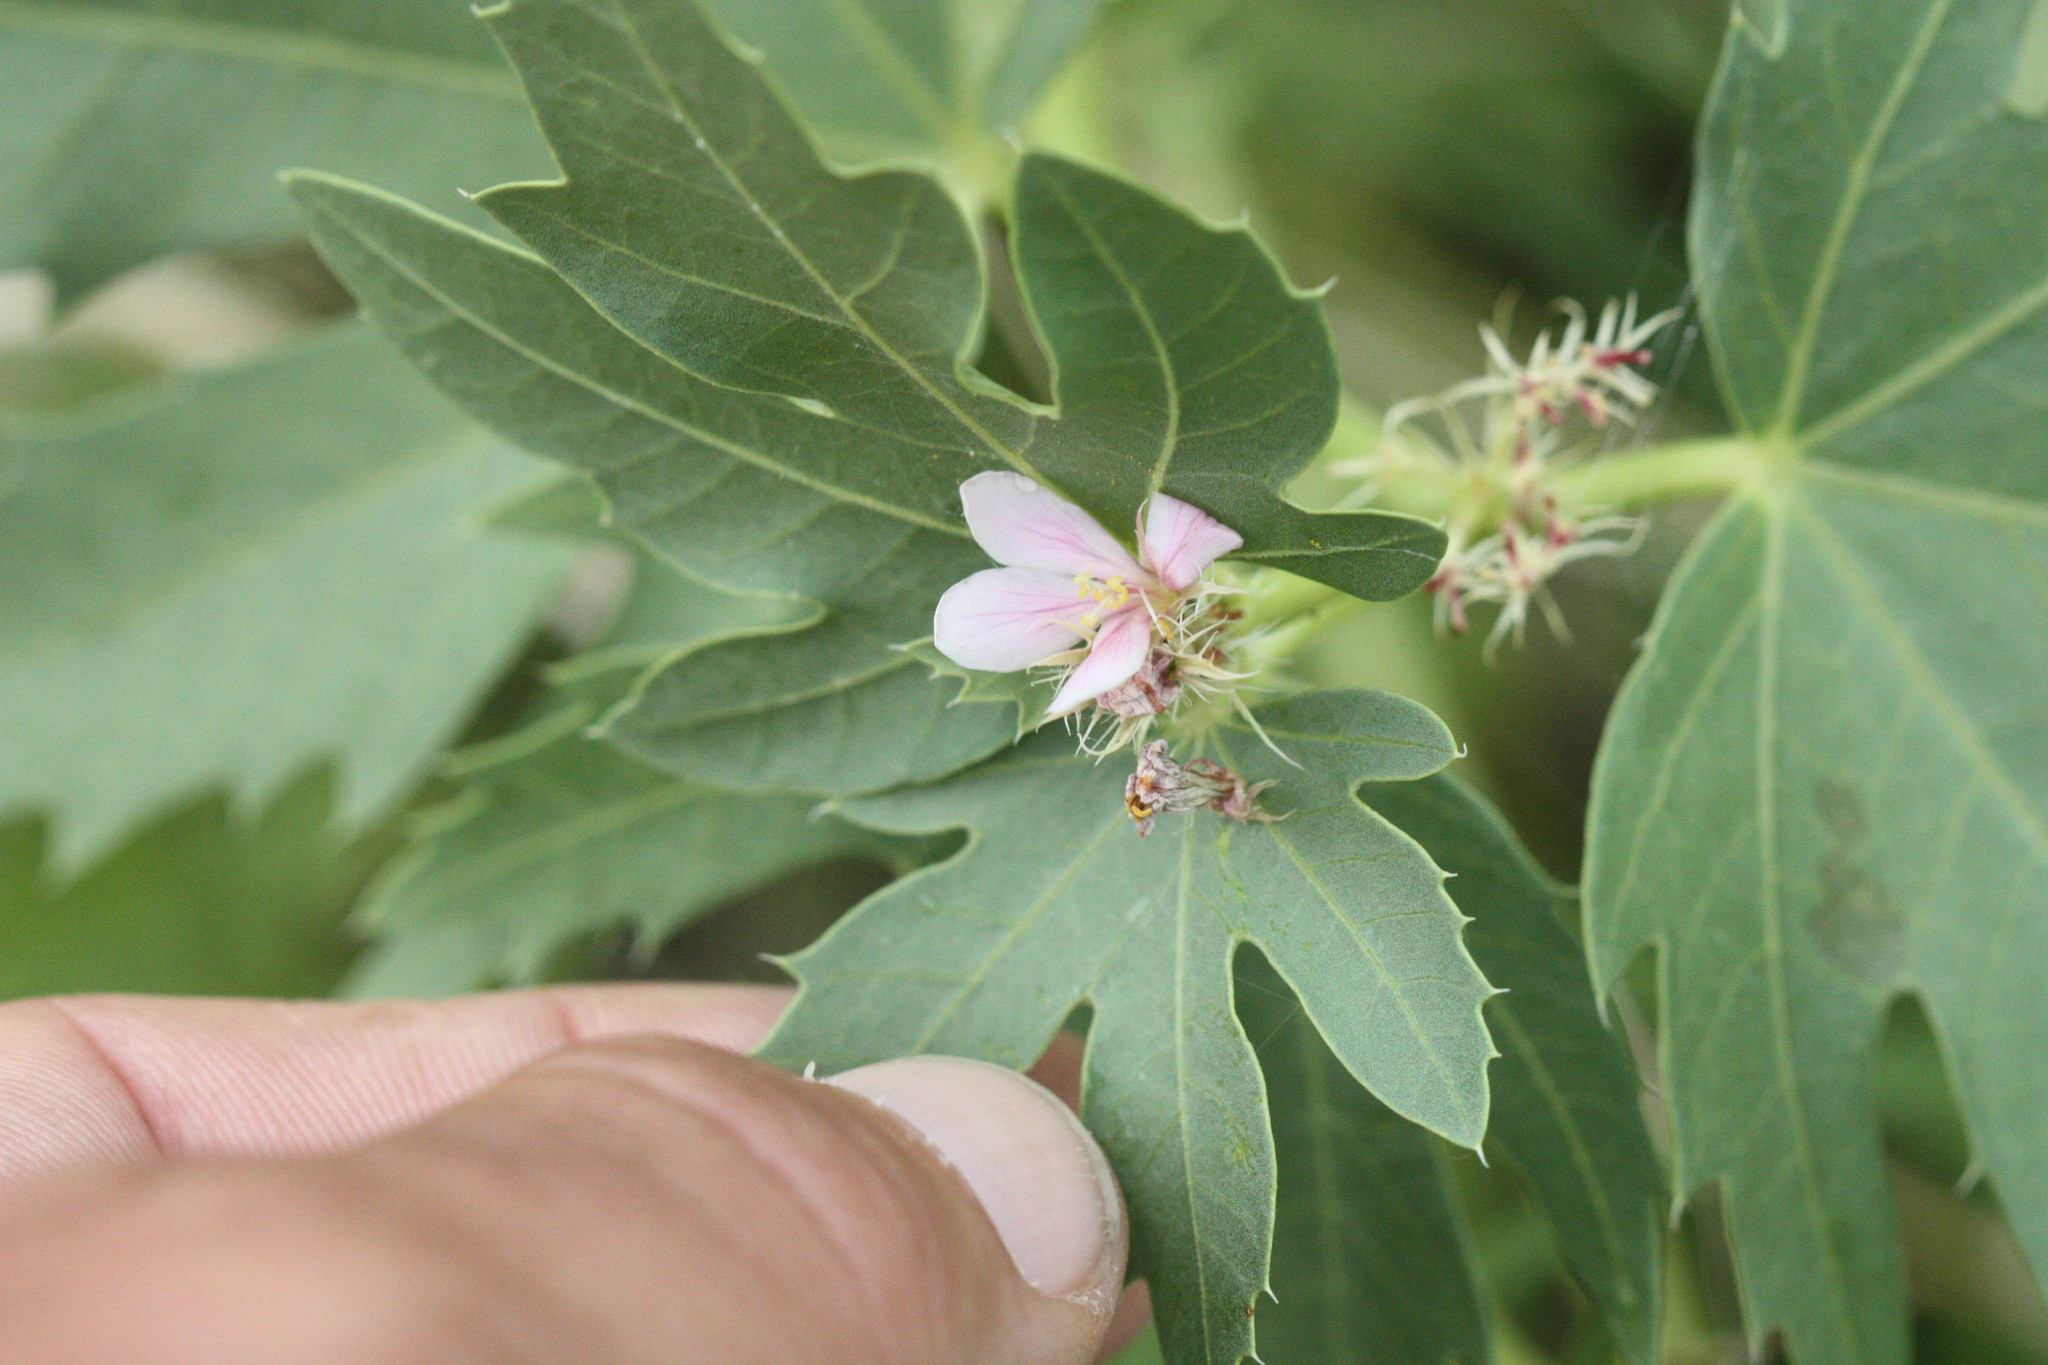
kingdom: Plantae
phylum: Tracheophyta
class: Magnoliopsida
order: Malpighiales
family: Euphorbiaceae
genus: Jatropha
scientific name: Jatropha macrorhiza
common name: Ragged nettlespurge
